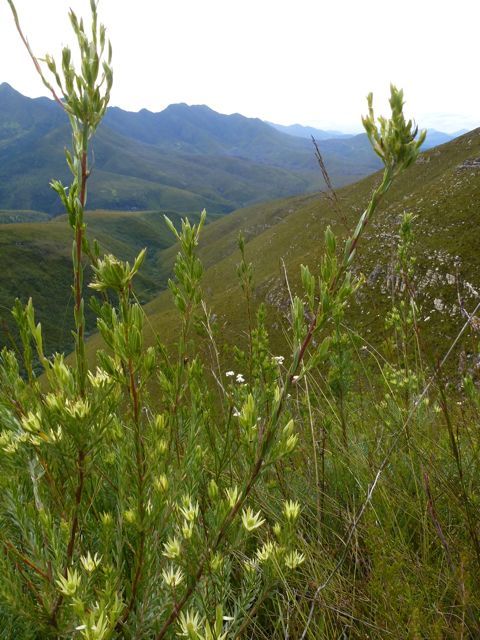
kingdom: Plantae
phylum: Tracheophyta
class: Magnoliopsida
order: Proteales
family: Proteaceae
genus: Leucadendron
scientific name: Leucadendron uliginosum
